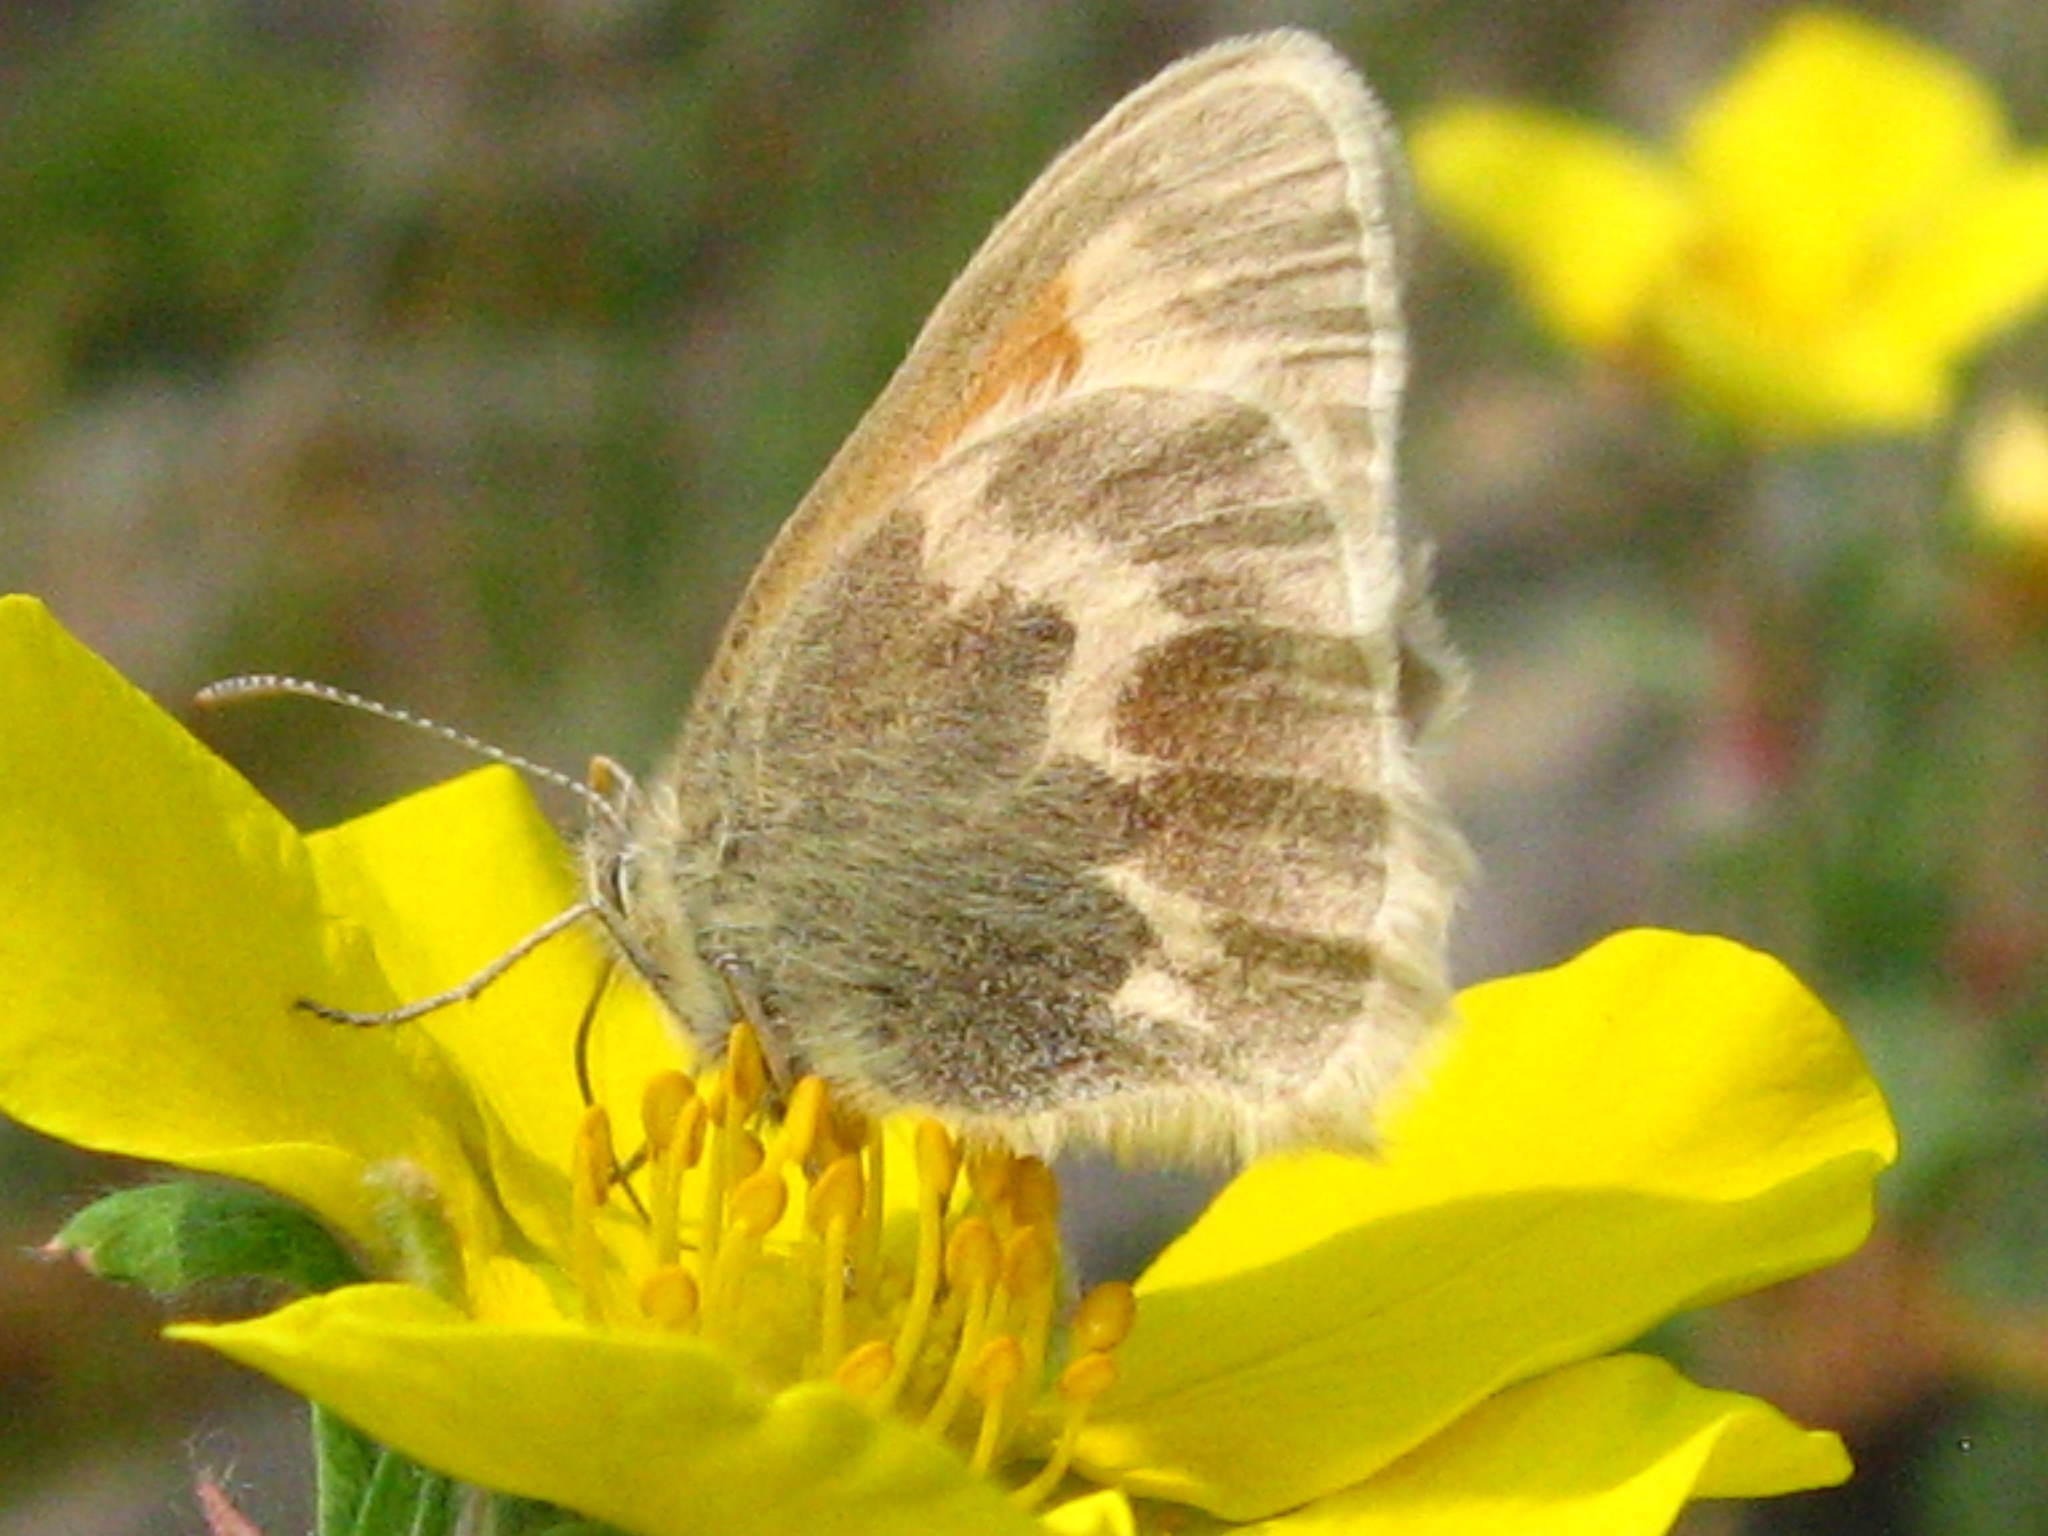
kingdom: Animalia
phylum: Arthropoda
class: Insecta
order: Lepidoptera
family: Nymphalidae
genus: Coenonympha
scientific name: Coenonympha tullia
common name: Large heath
